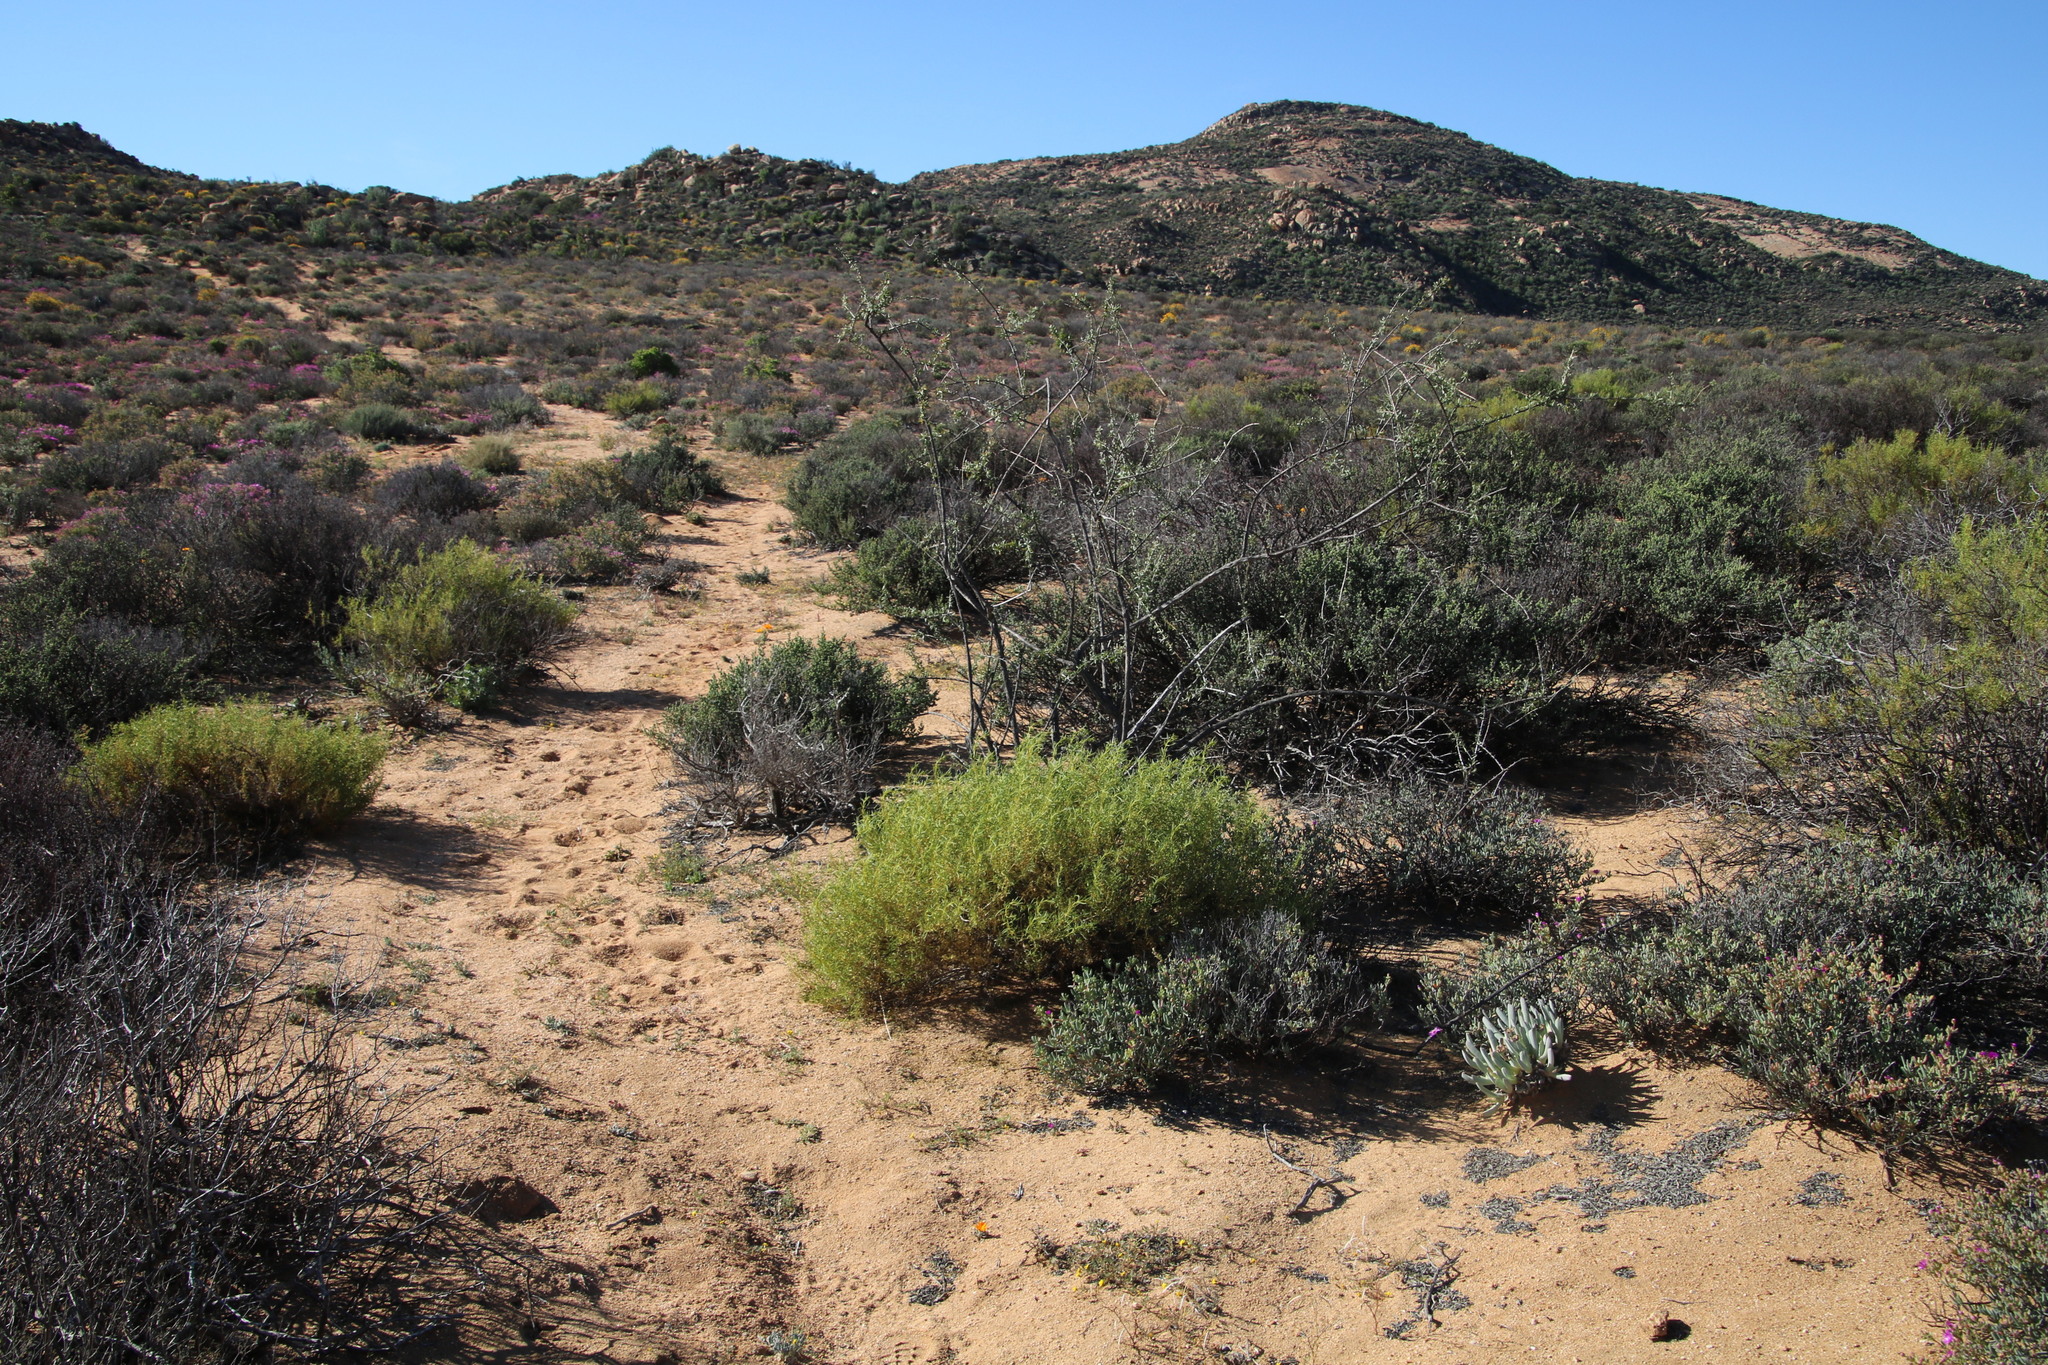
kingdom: Plantae
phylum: Tracheophyta
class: Magnoliopsida
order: Caryophyllales
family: Aizoaceae
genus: Aizoon
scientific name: Aizoon africanum
